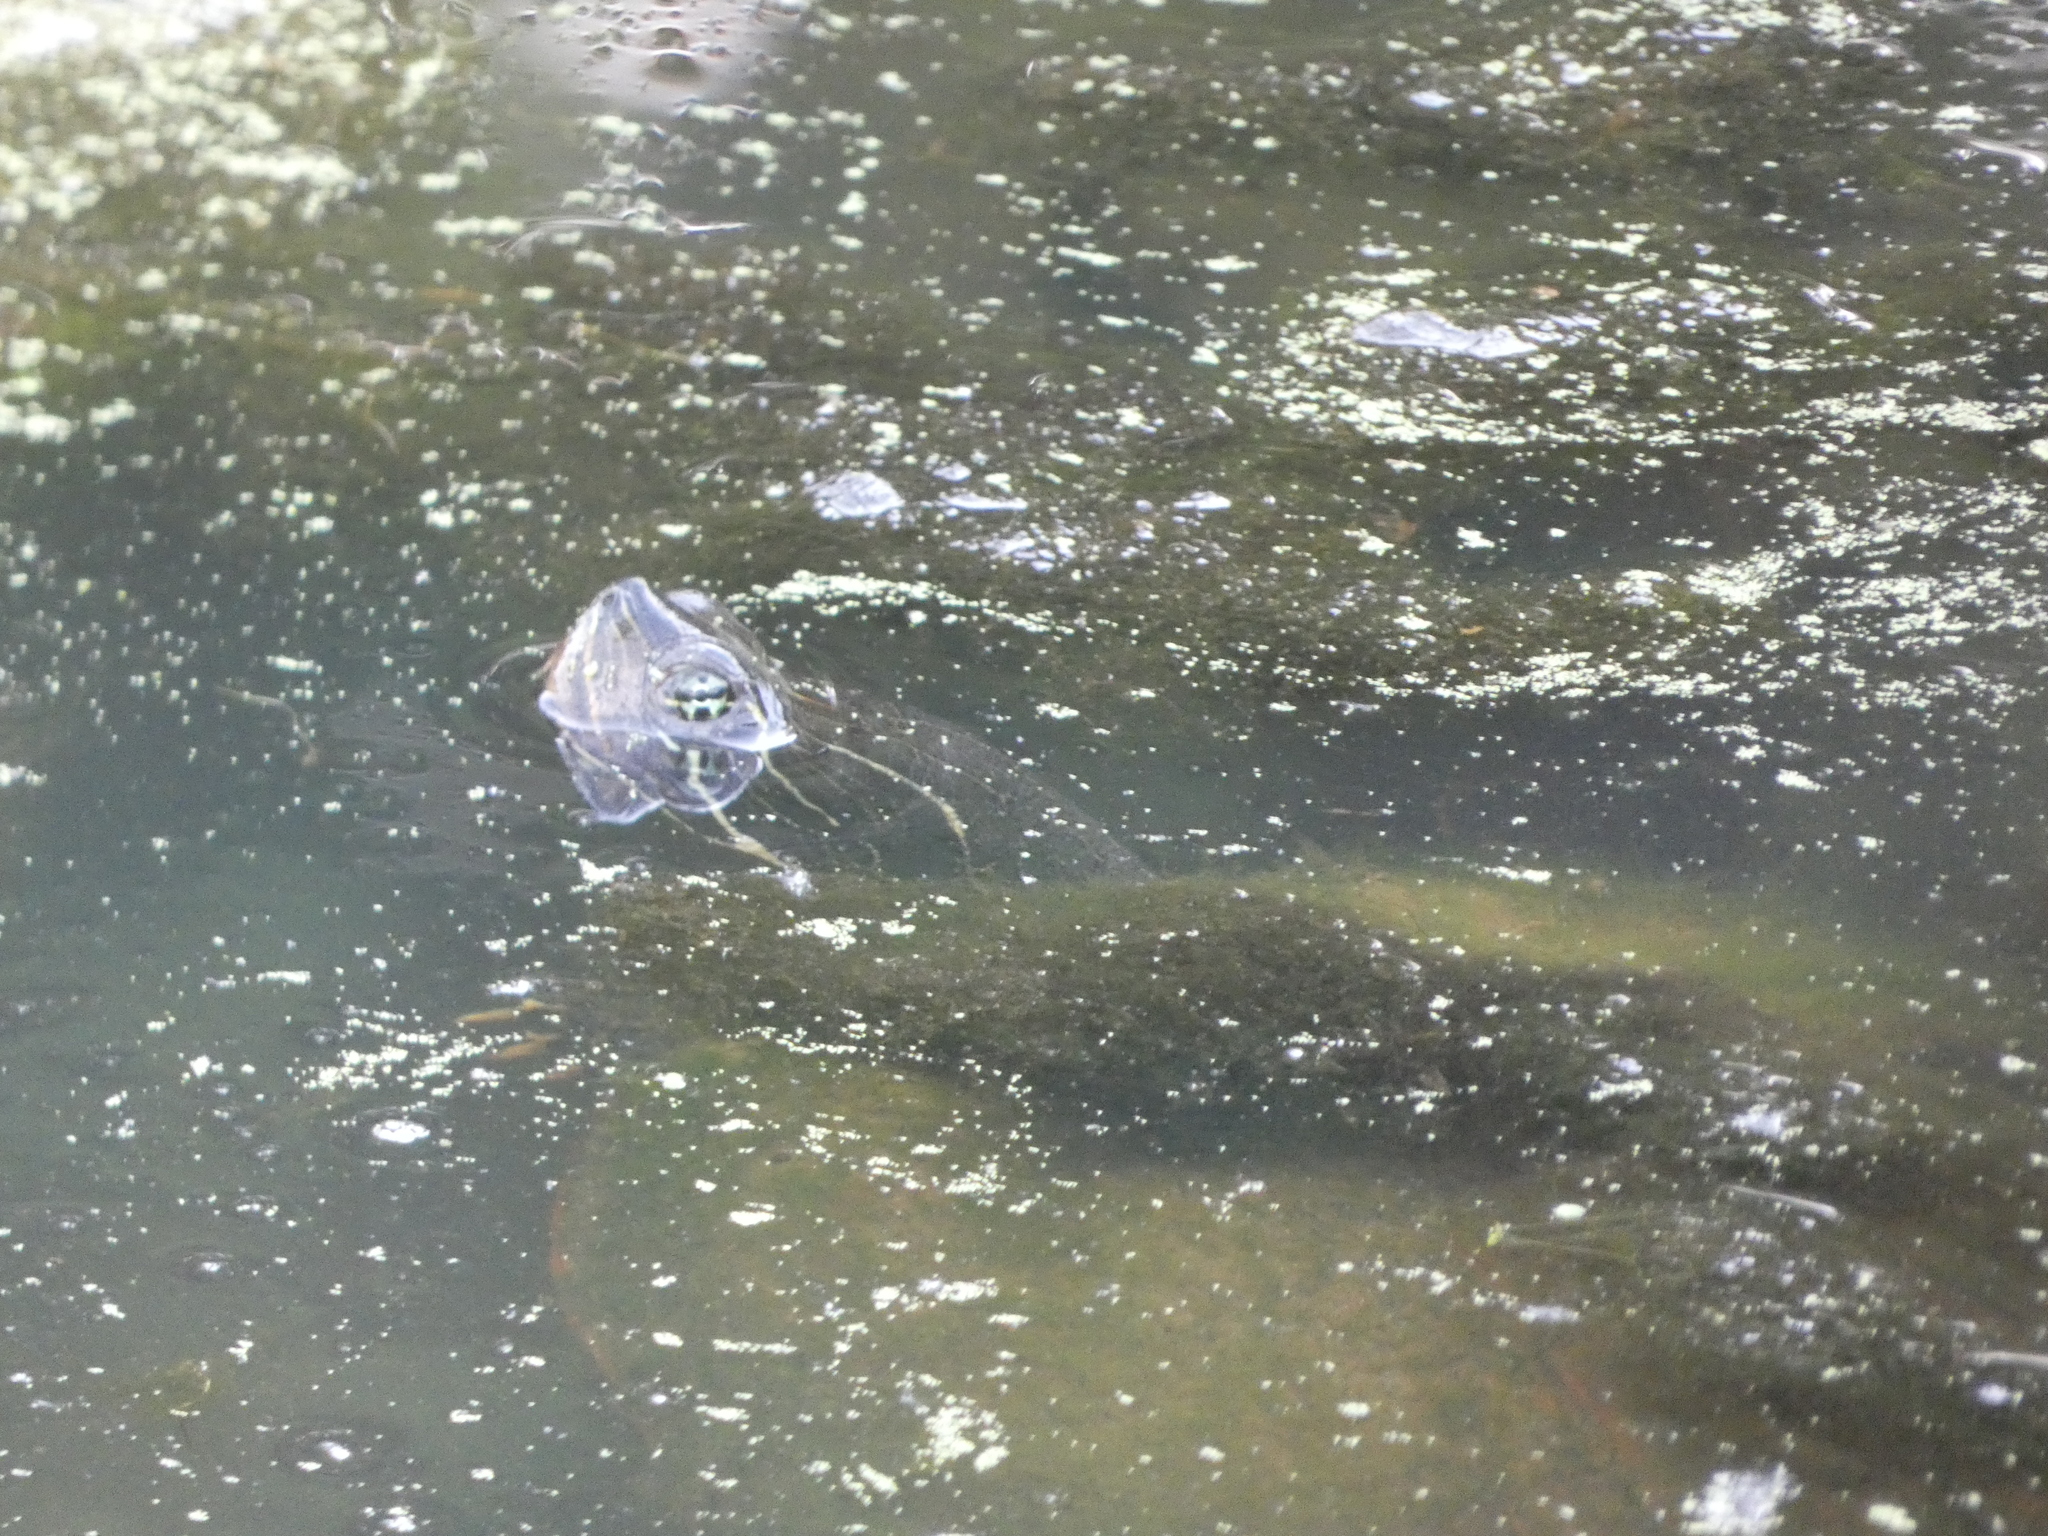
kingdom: Animalia
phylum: Chordata
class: Testudines
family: Emydidae
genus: Pseudemys
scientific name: Pseudemys rubriventris
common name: American red-bellied turtle
